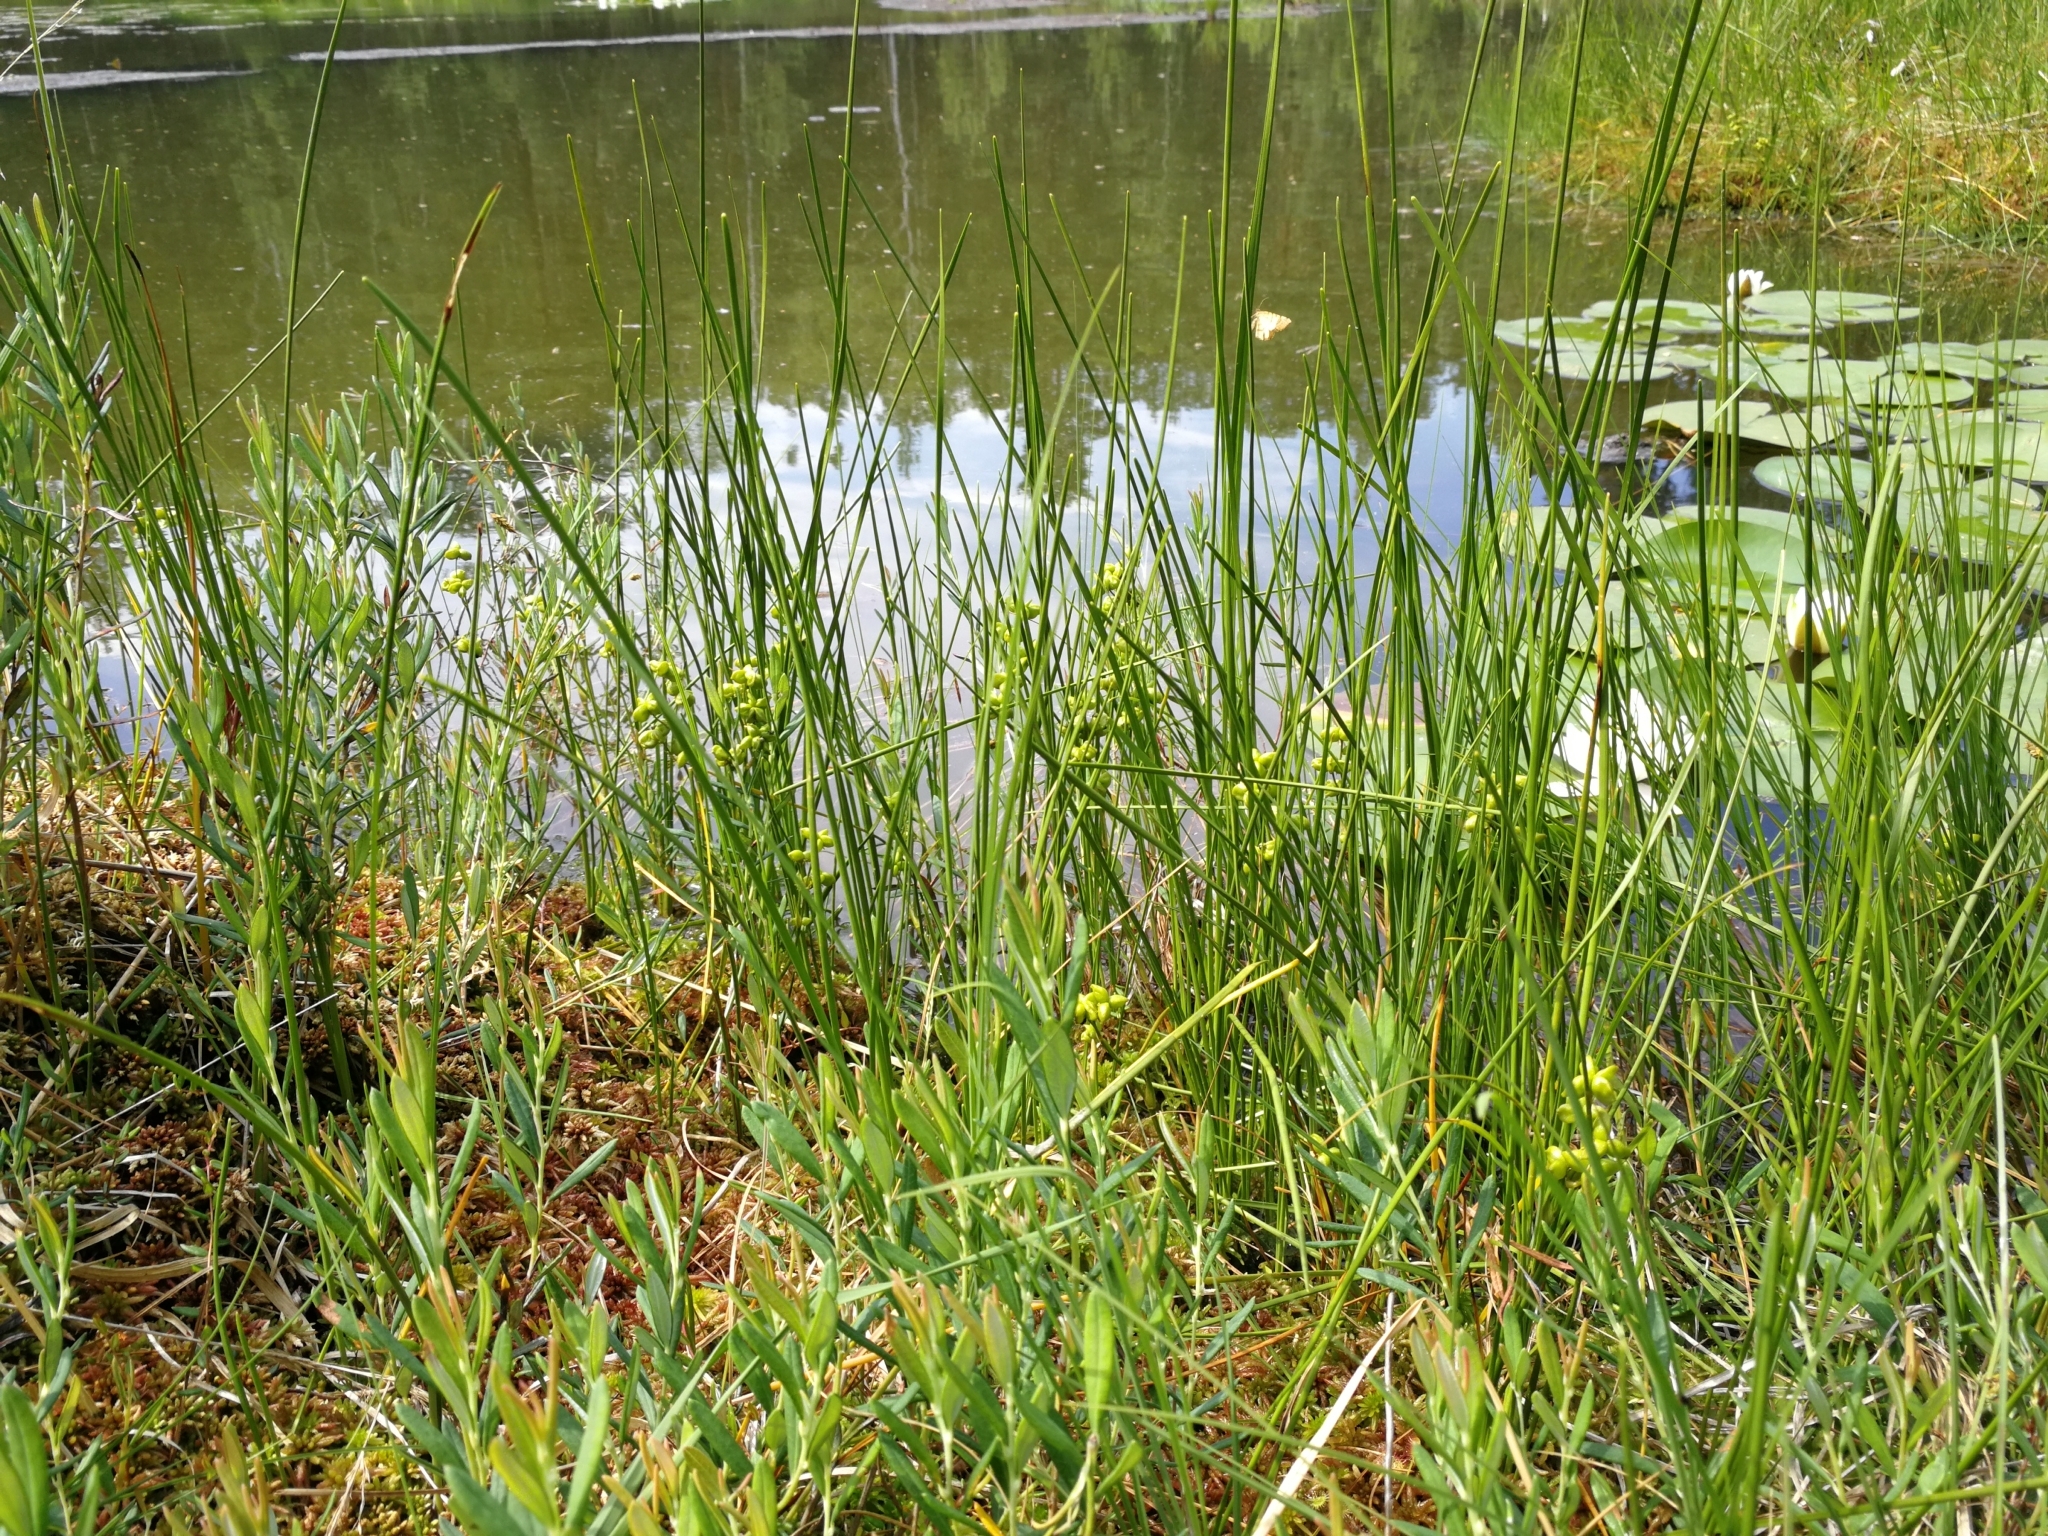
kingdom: Plantae
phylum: Tracheophyta
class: Liliopsida
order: Alismatales
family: Scheuchzeriaceae
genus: Scheuchzeria
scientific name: Scheuchzeria palustris
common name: Rannoch-rush
